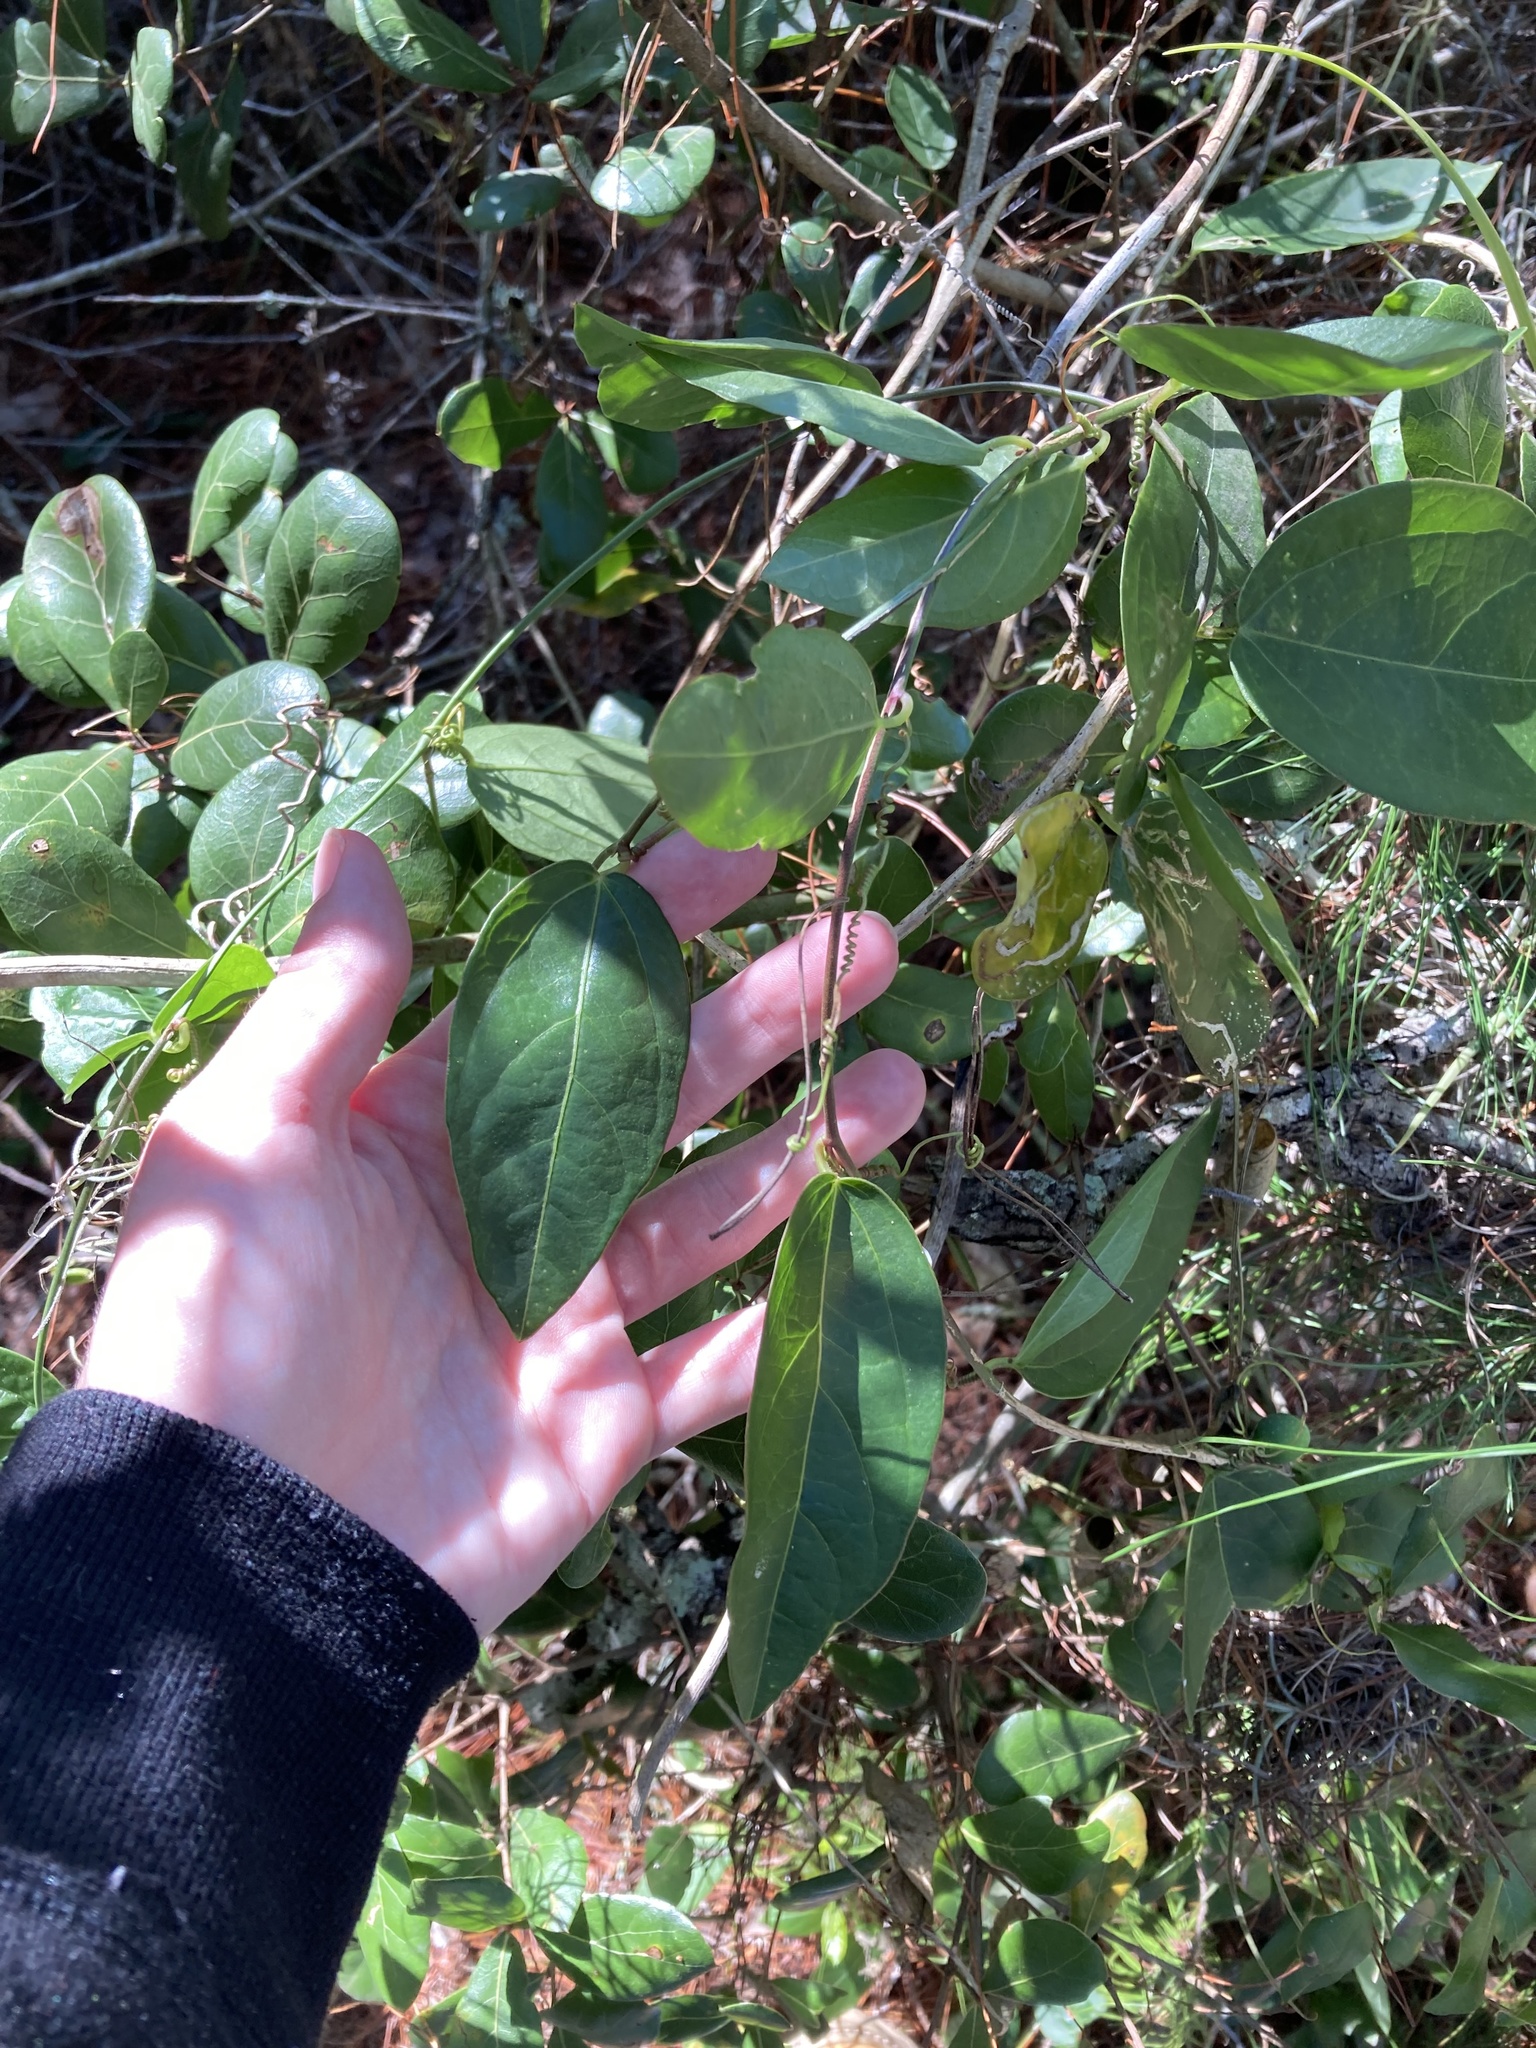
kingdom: Plantae
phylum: Tracheophyta
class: Magnoliopsida
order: Malpighiales
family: Passifloraceae
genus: Passiflora
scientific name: Passiflora pallida
